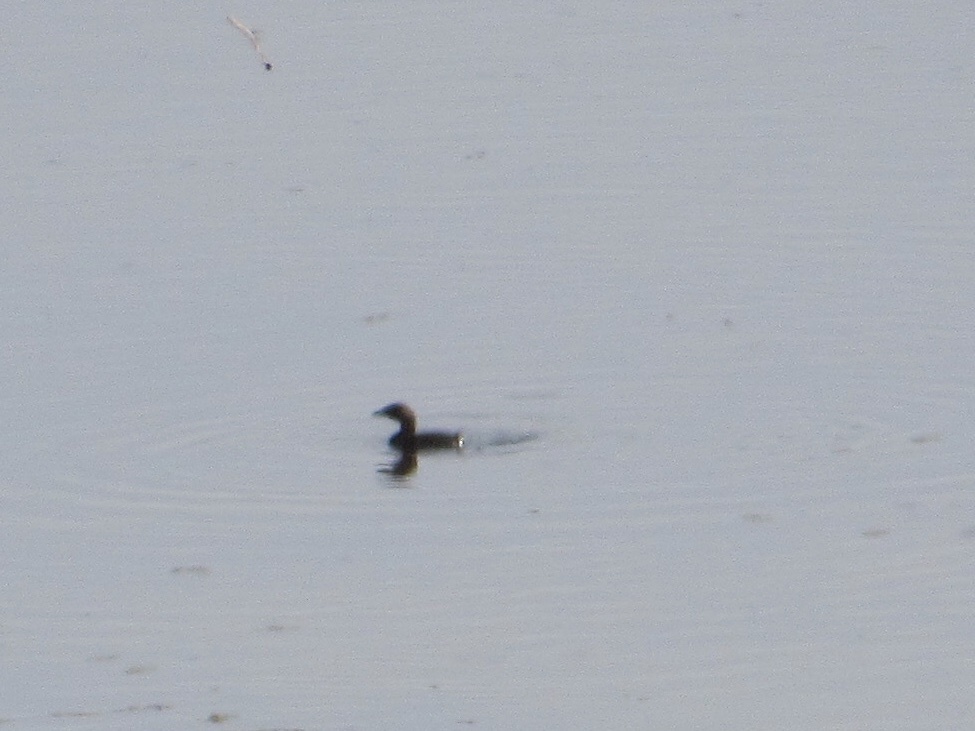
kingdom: Animalia
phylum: Chordata
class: Aves
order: Podicipediformes
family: Podicipedidae
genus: Podilymbus
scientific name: Podilymbus podiceps
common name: Pied-billed grebe
